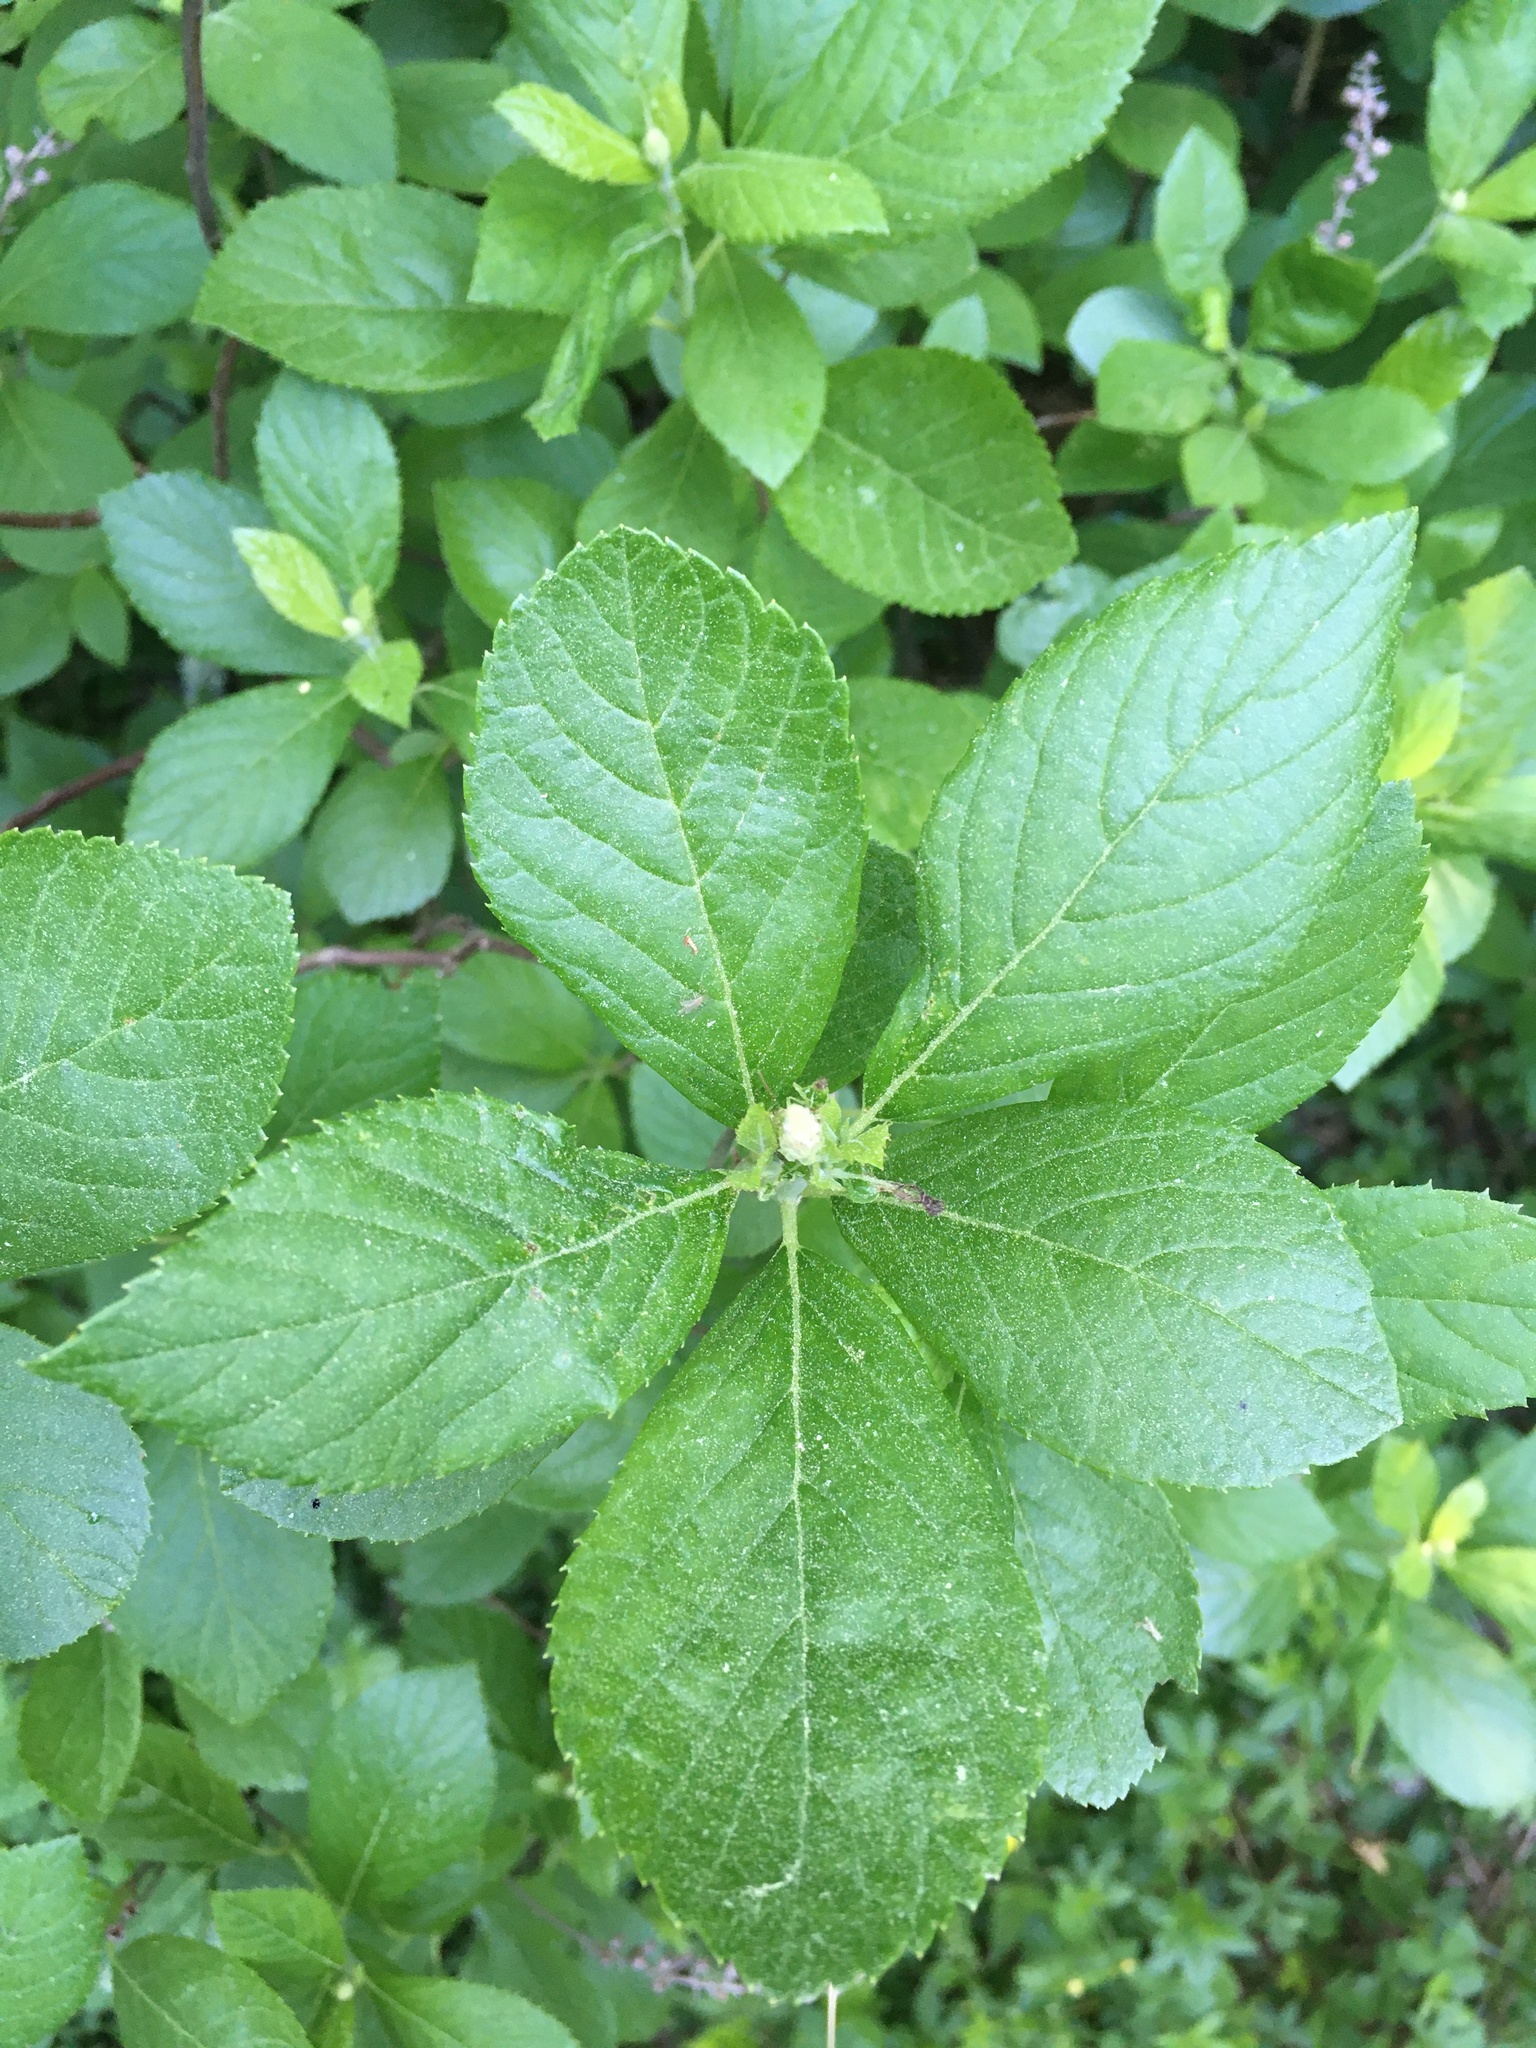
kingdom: Plantae
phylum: Tracheophyta
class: Magnoliopsida
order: Ericales
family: Clethraceae
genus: Clethra
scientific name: Clethra alnifolia
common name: Sweet pepperbush
